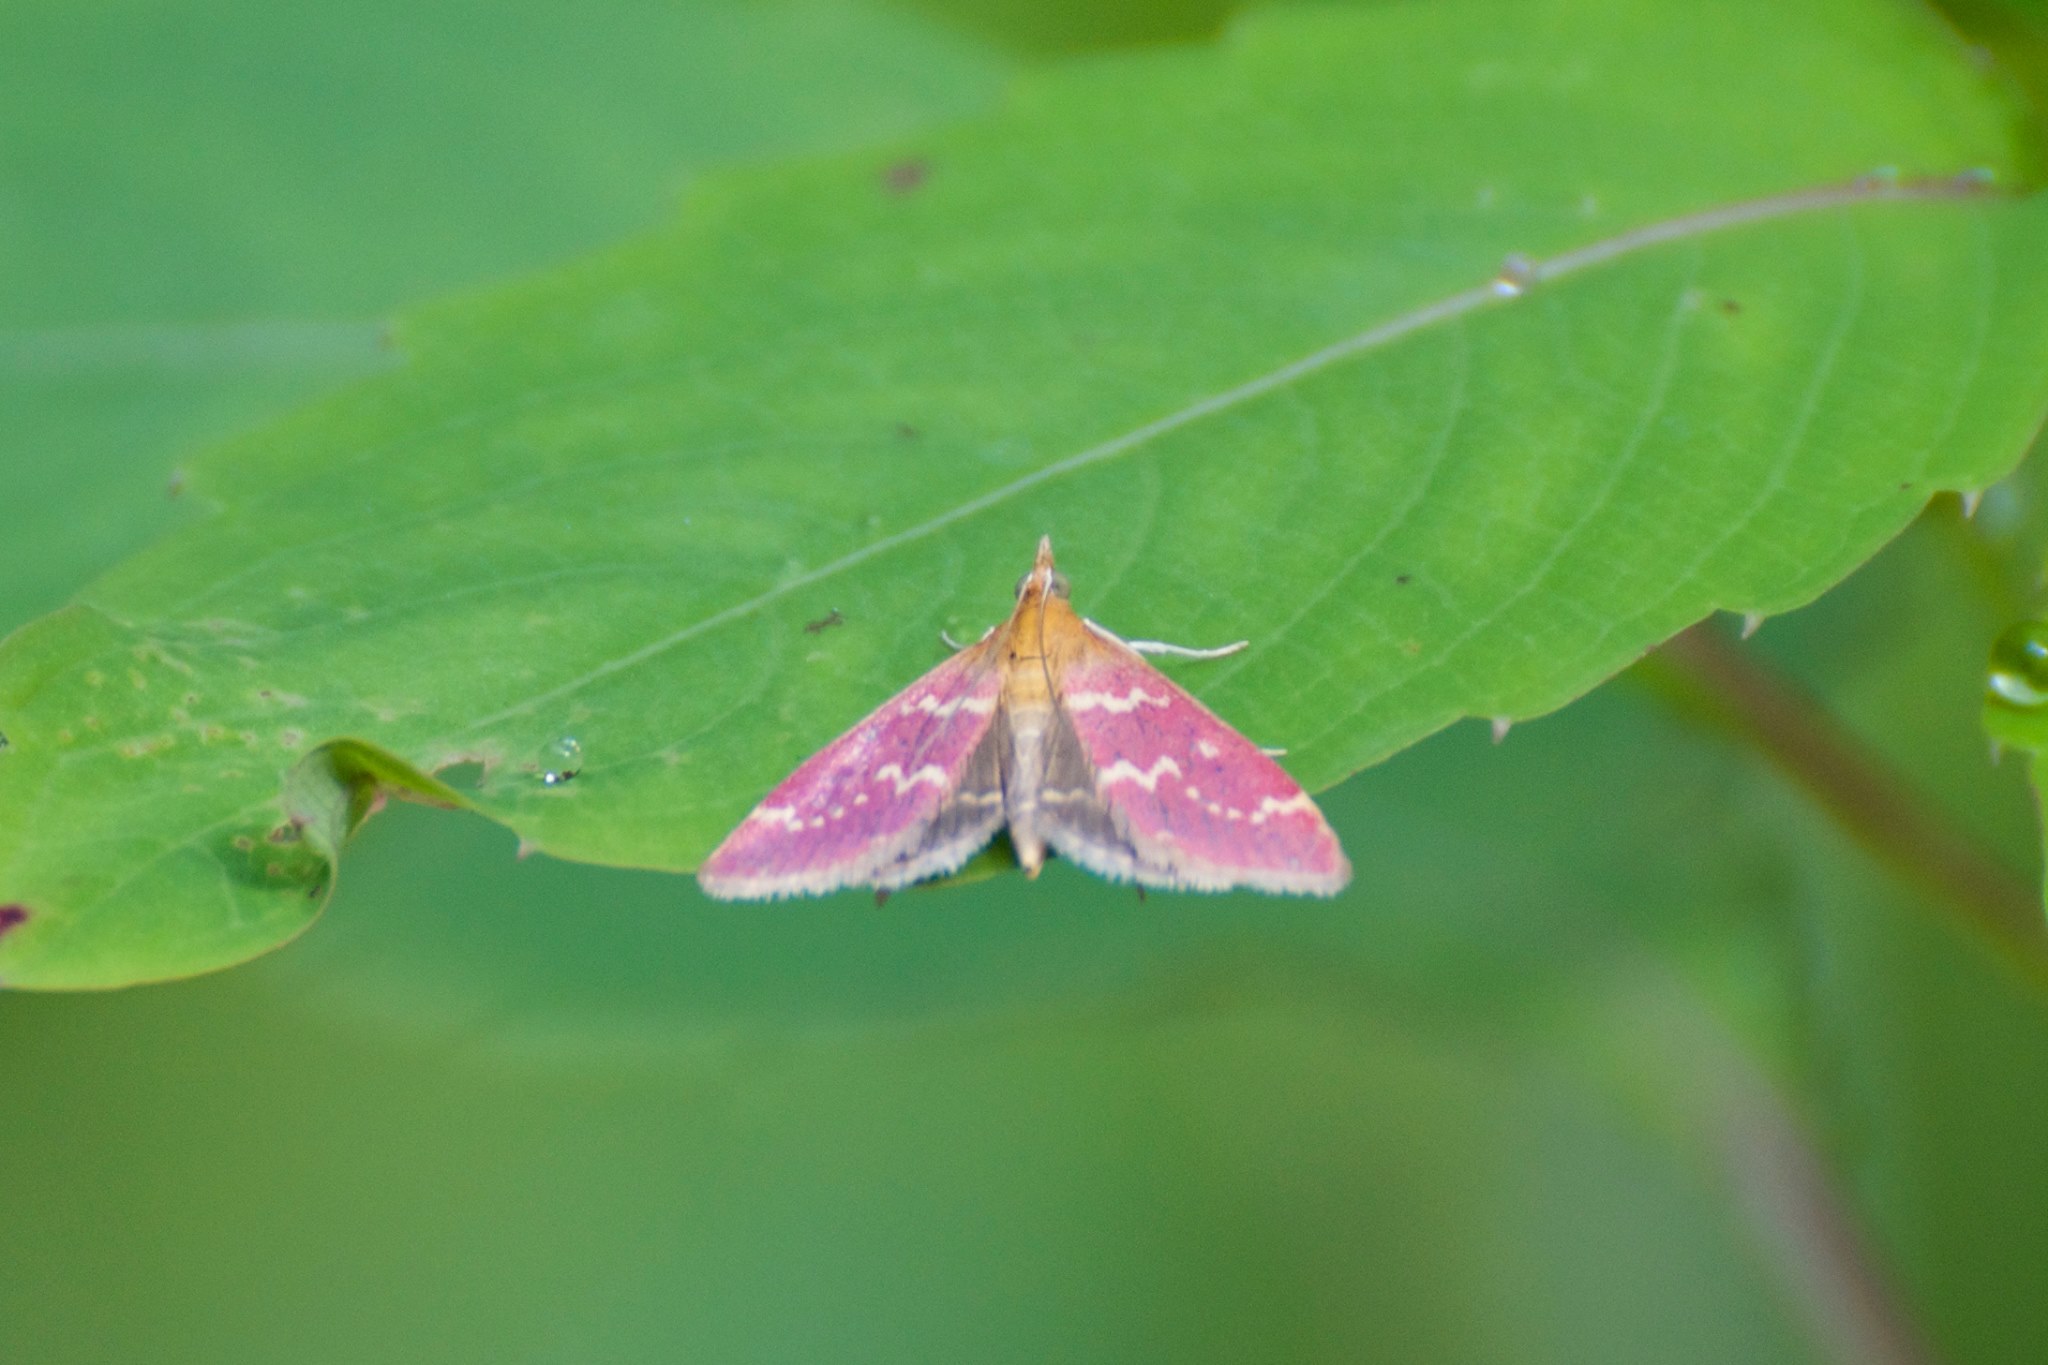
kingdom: Animalia
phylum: Arthropoda
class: Insecta
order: Lepidoptera
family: Crambidae
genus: Pyrausta
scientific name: Pyrausta signatalis
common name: Raspberry pyrausta moth
